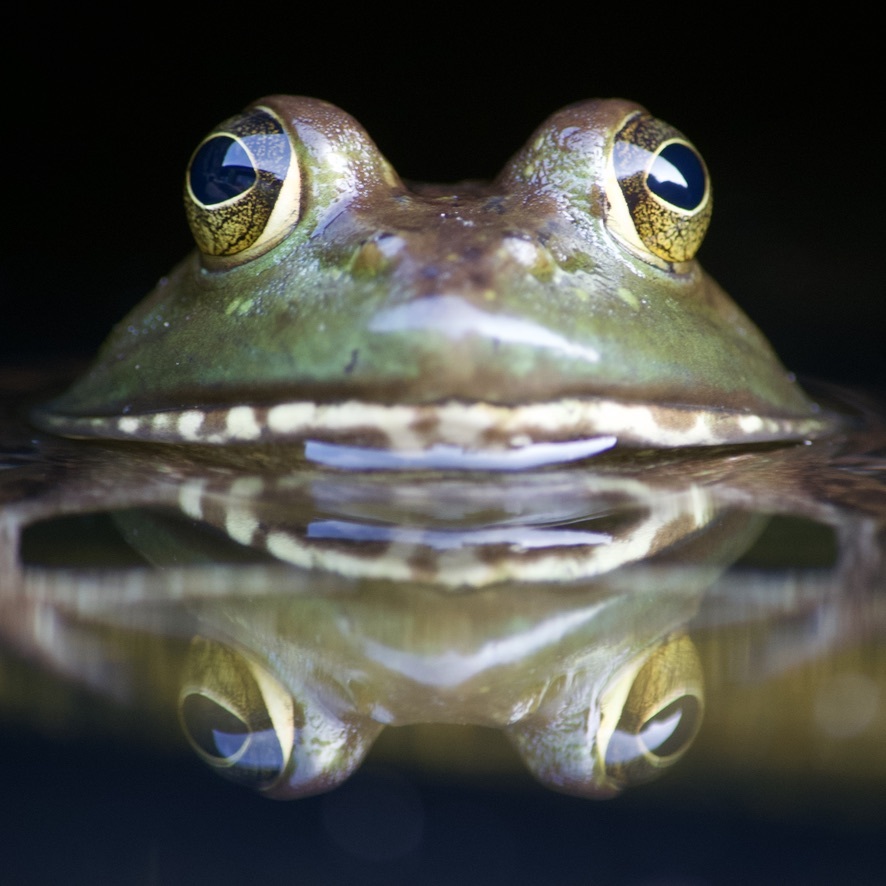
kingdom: Animalia
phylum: Chordata
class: Amphibia
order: Anura
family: Ranidae
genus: Lithobates
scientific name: Lithobates catesbeianus
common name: American bullfrog
